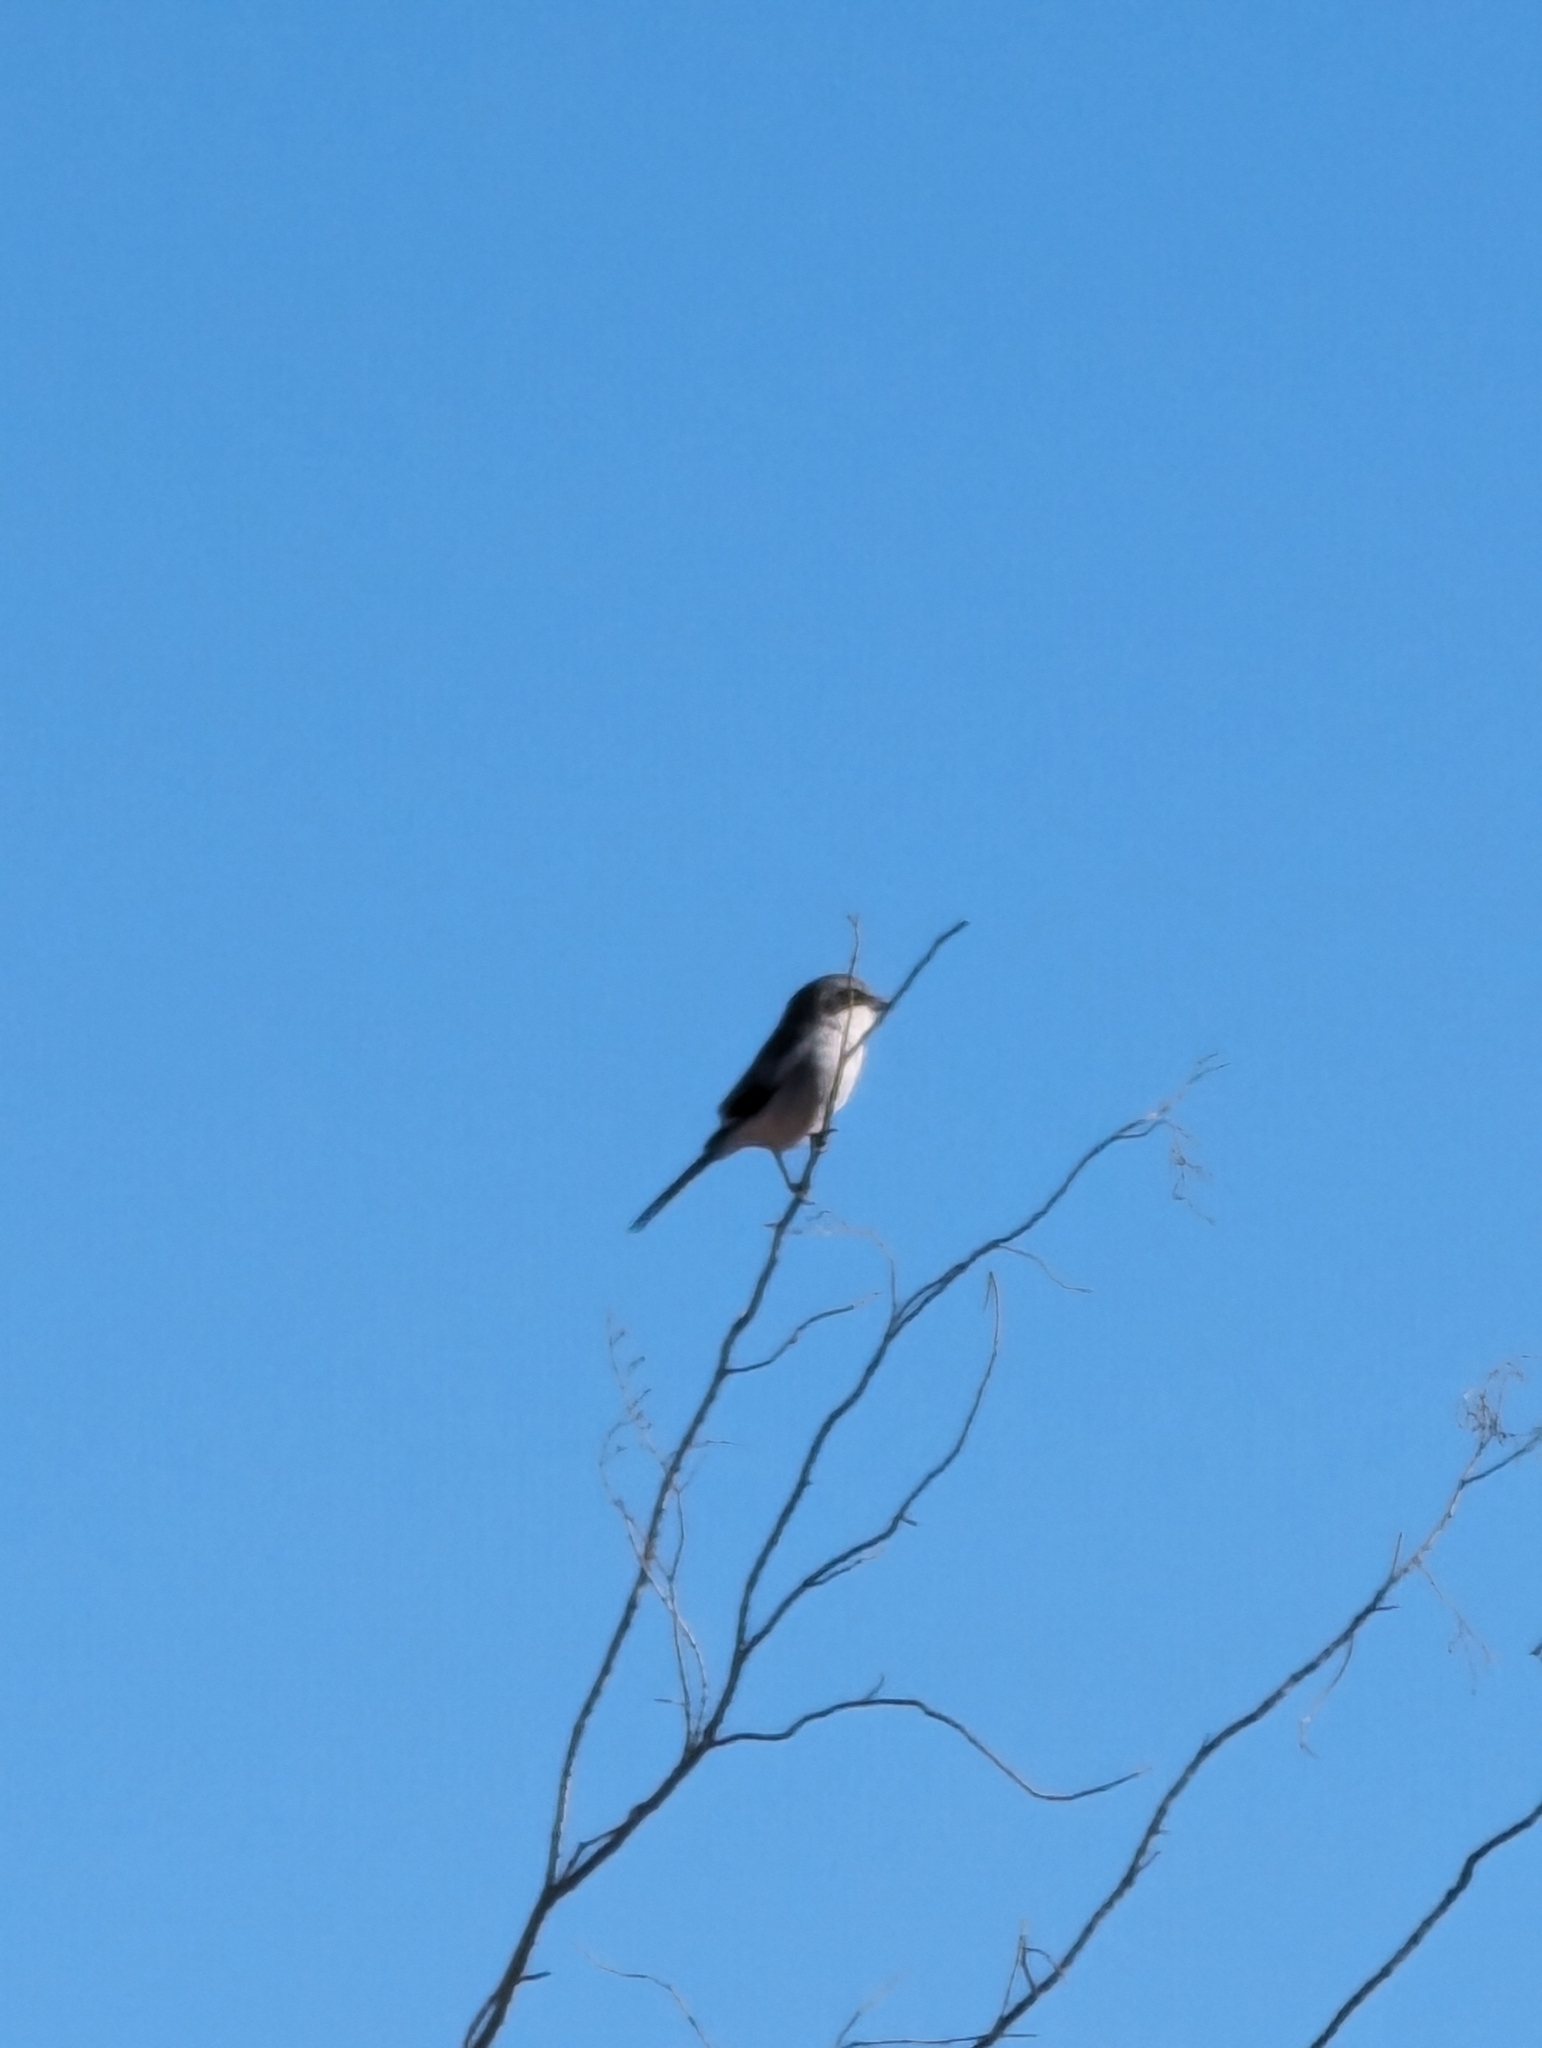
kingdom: Animalia
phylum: Chordata
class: Aves
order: Passeriformes
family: Laniidae
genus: Lanius
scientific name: Lanius ludovicianus
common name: Loggerhead shrike
